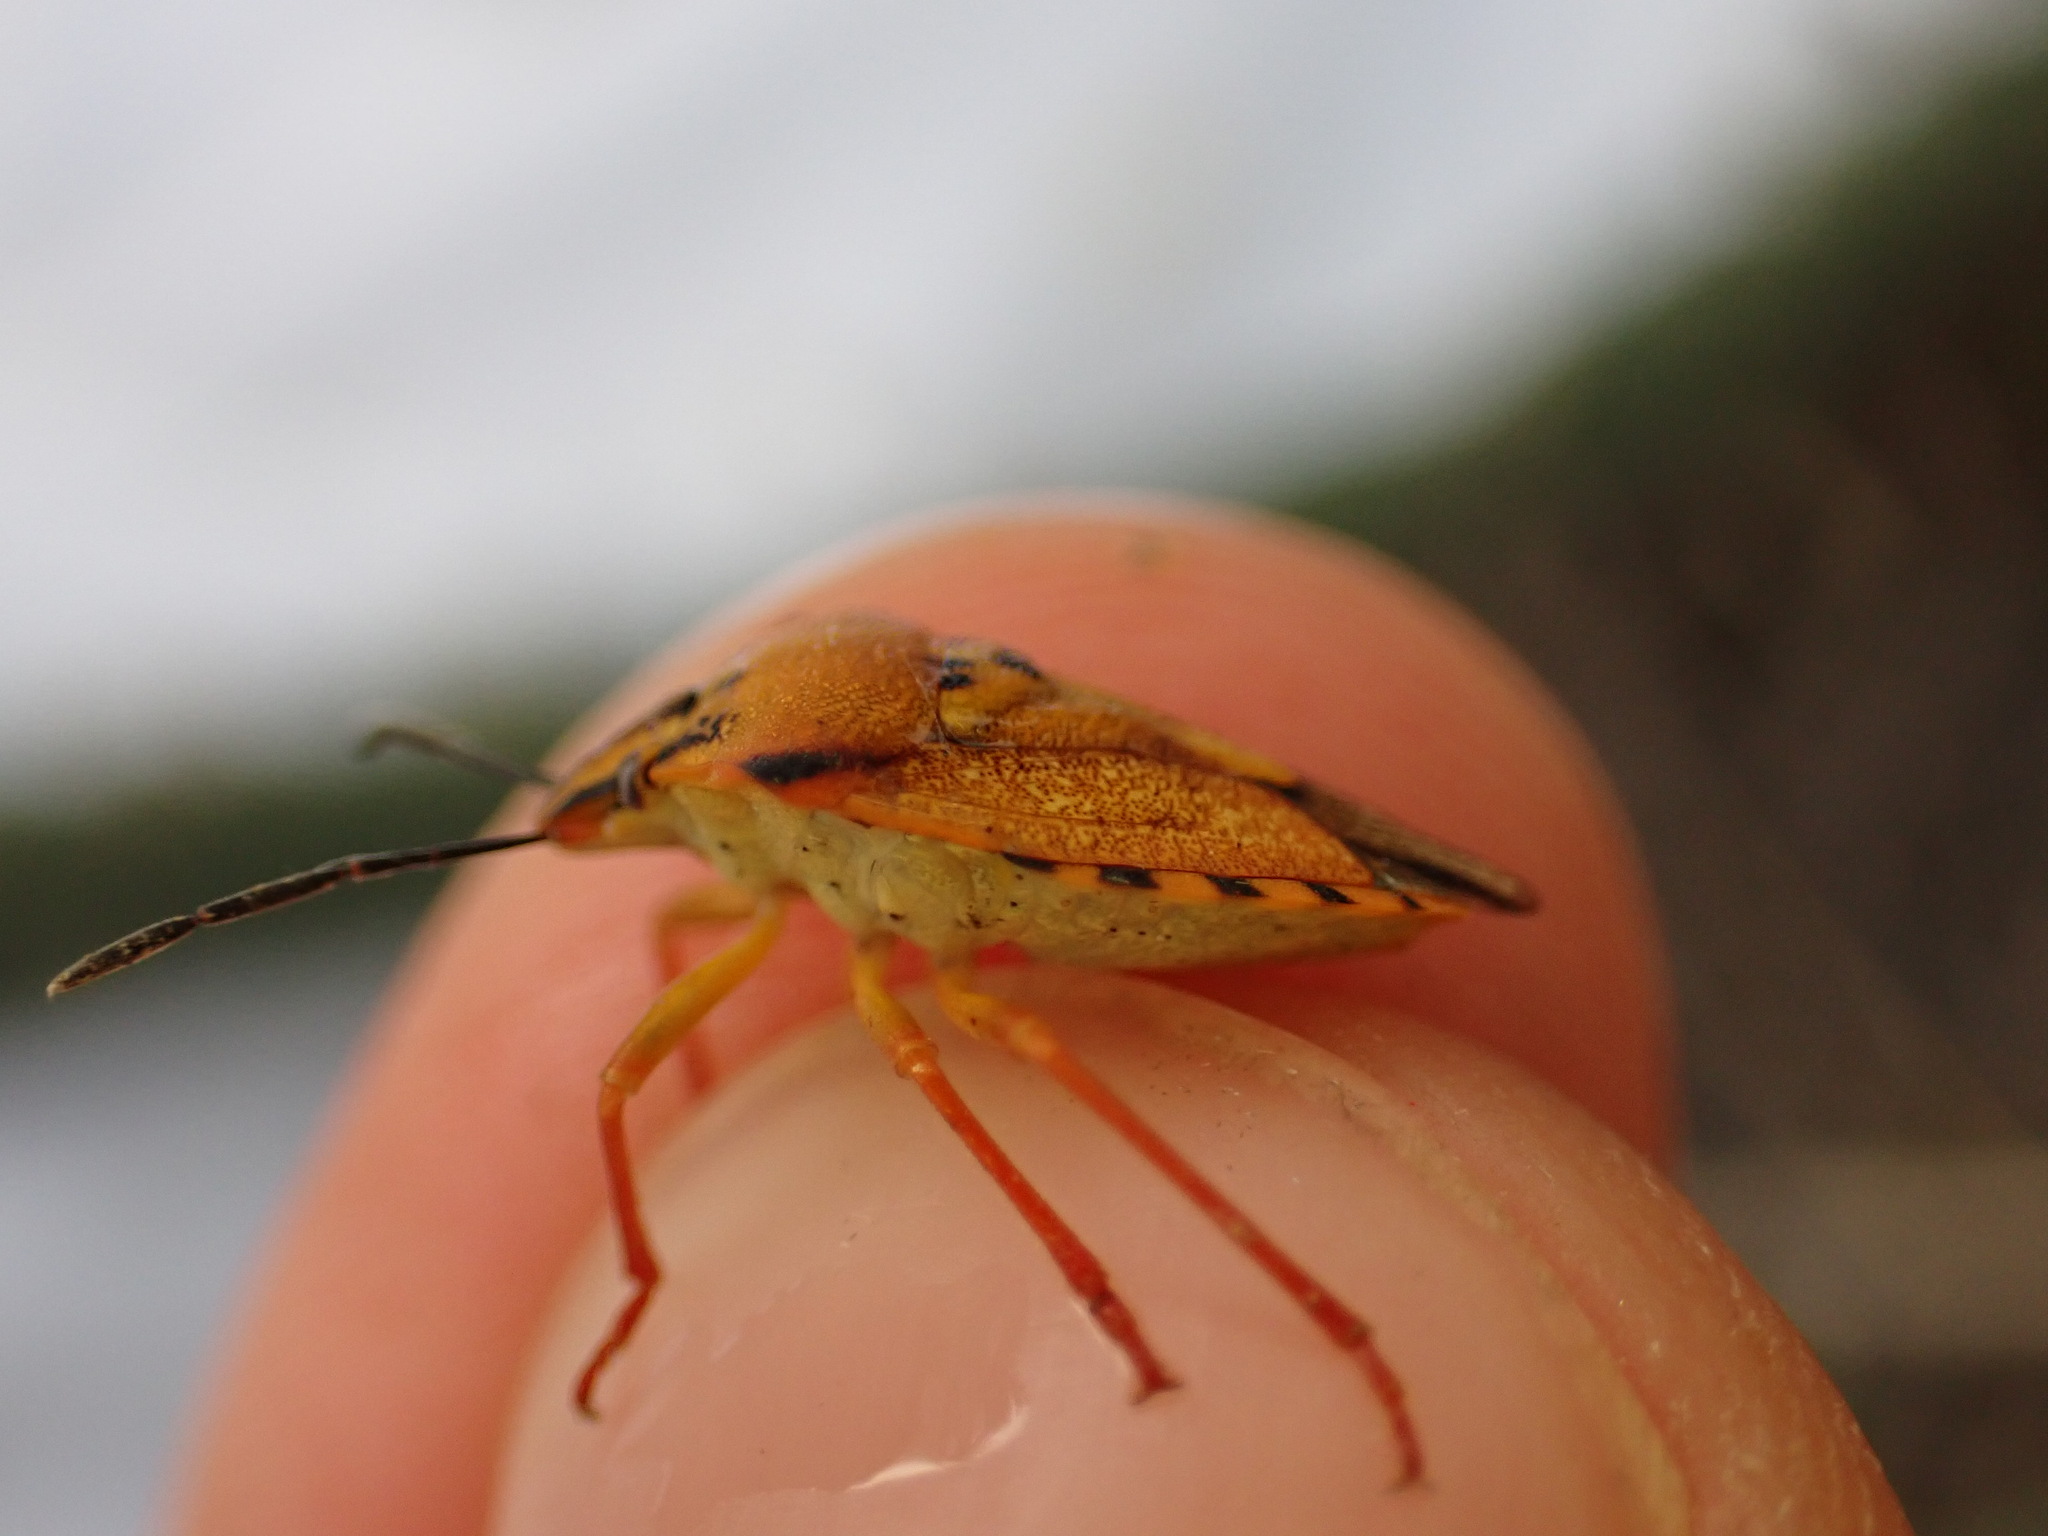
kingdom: Animalia
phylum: Arthropoda
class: Insecta
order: Hemiptera
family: Pentatomidae
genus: Carpocoris
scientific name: Carpocoris mediterraneus
